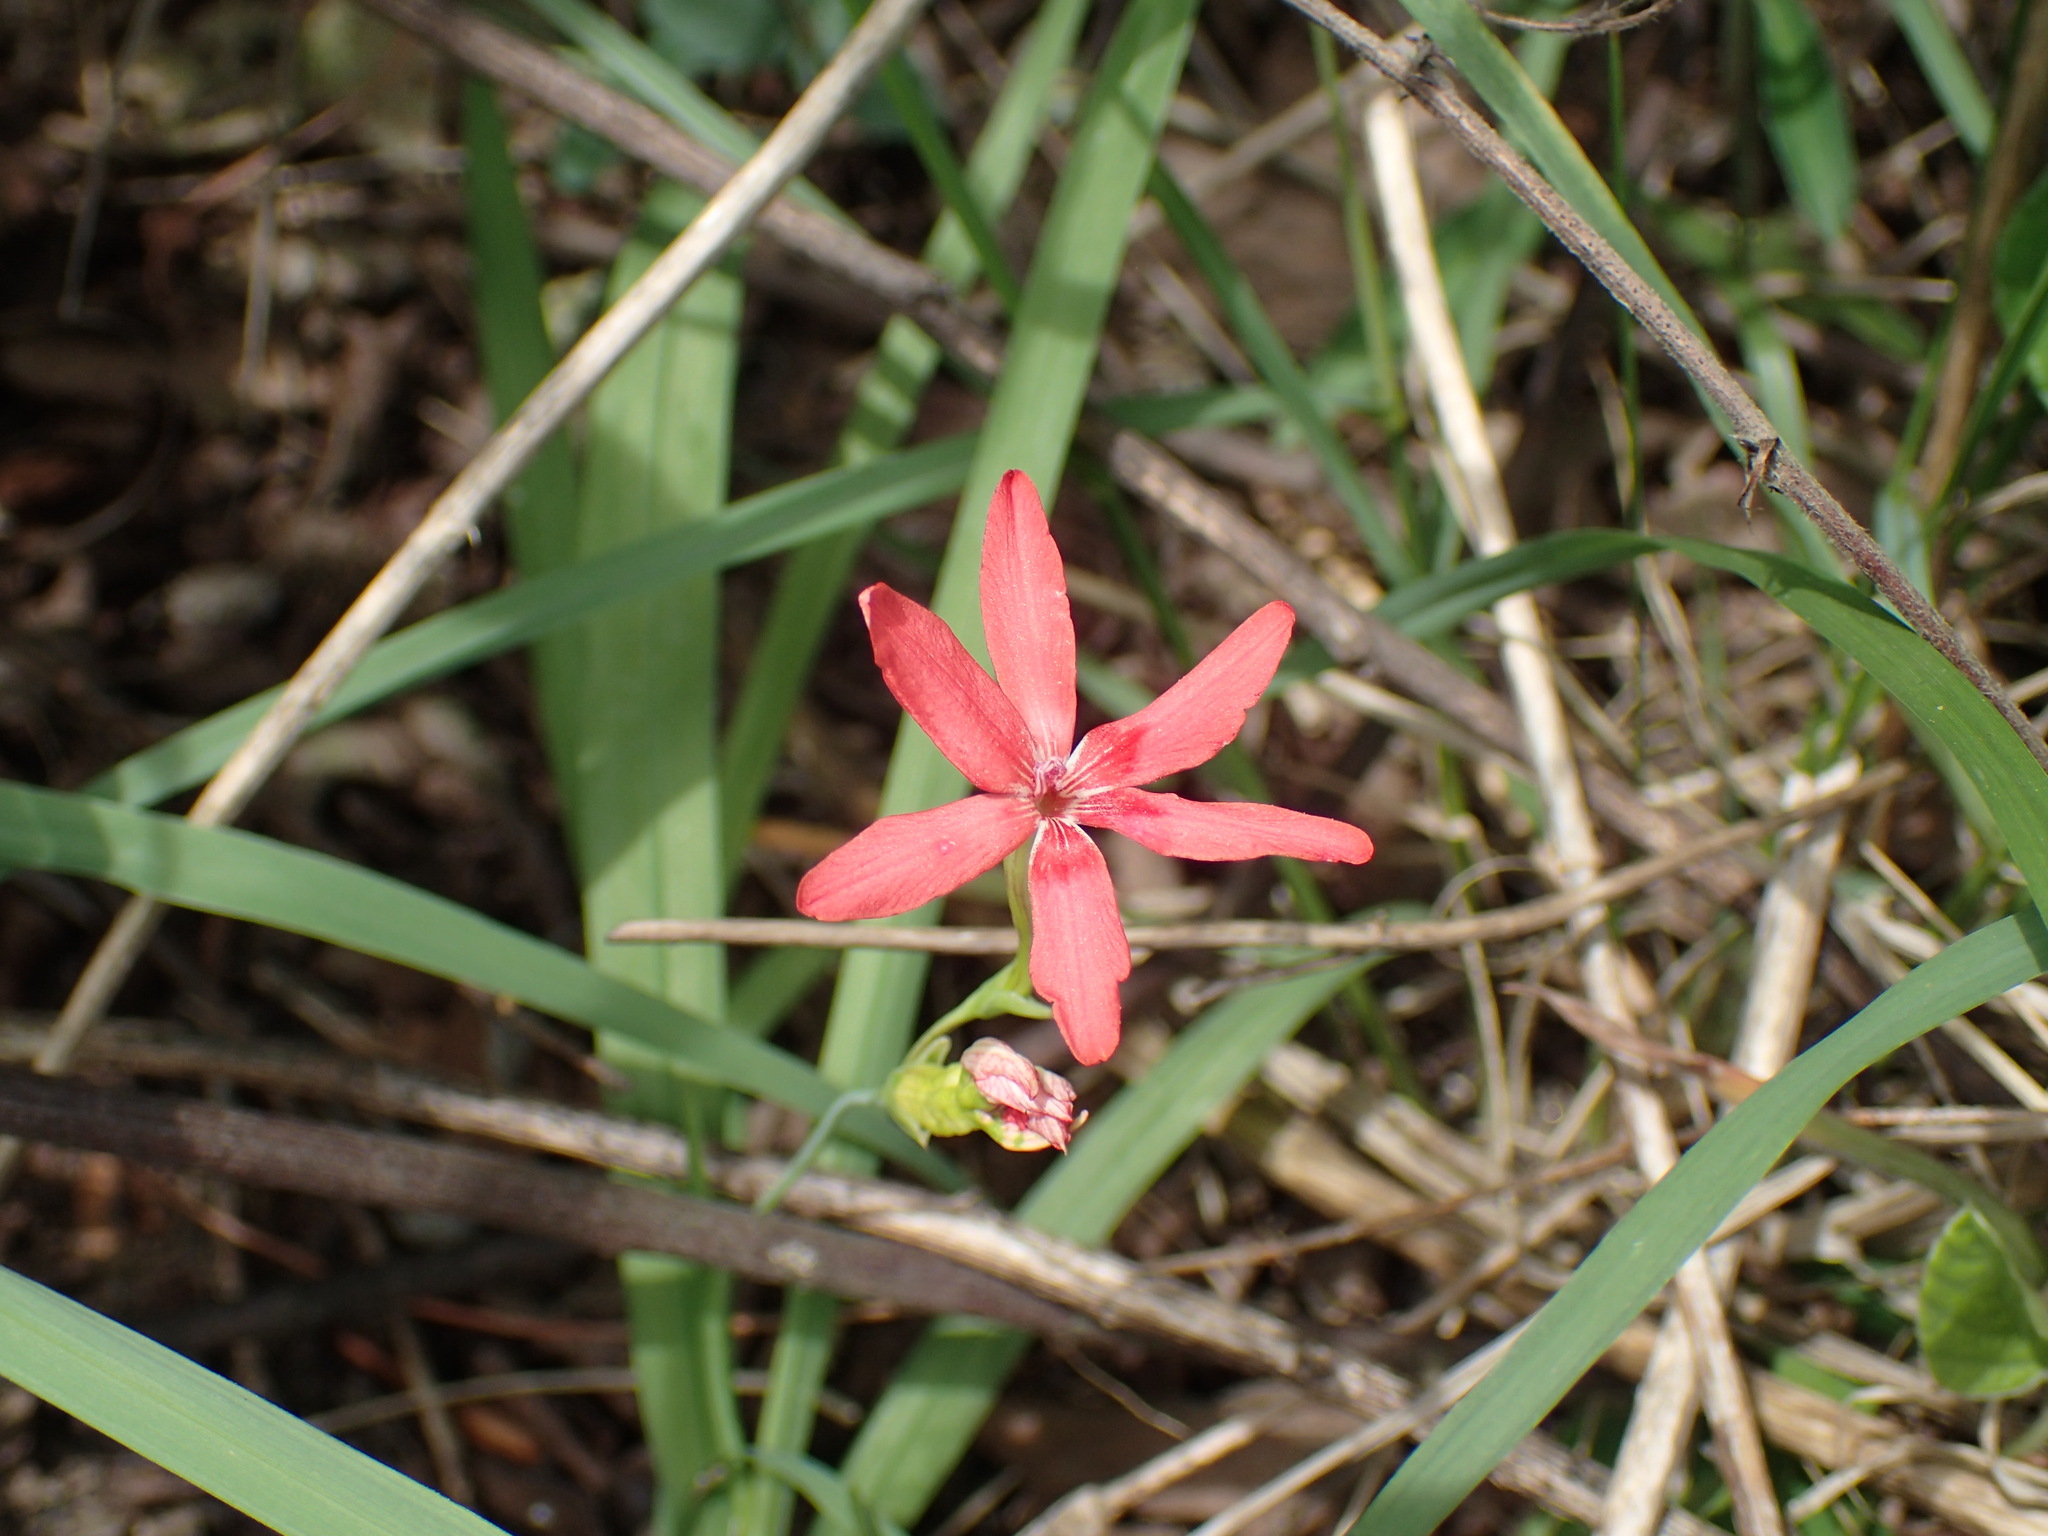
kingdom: Plantae
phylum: Tracheophyta
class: Liliopsida
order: Asparagales
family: Iridaceae
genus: Freesia
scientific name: Freesia laxa
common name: False freesia
